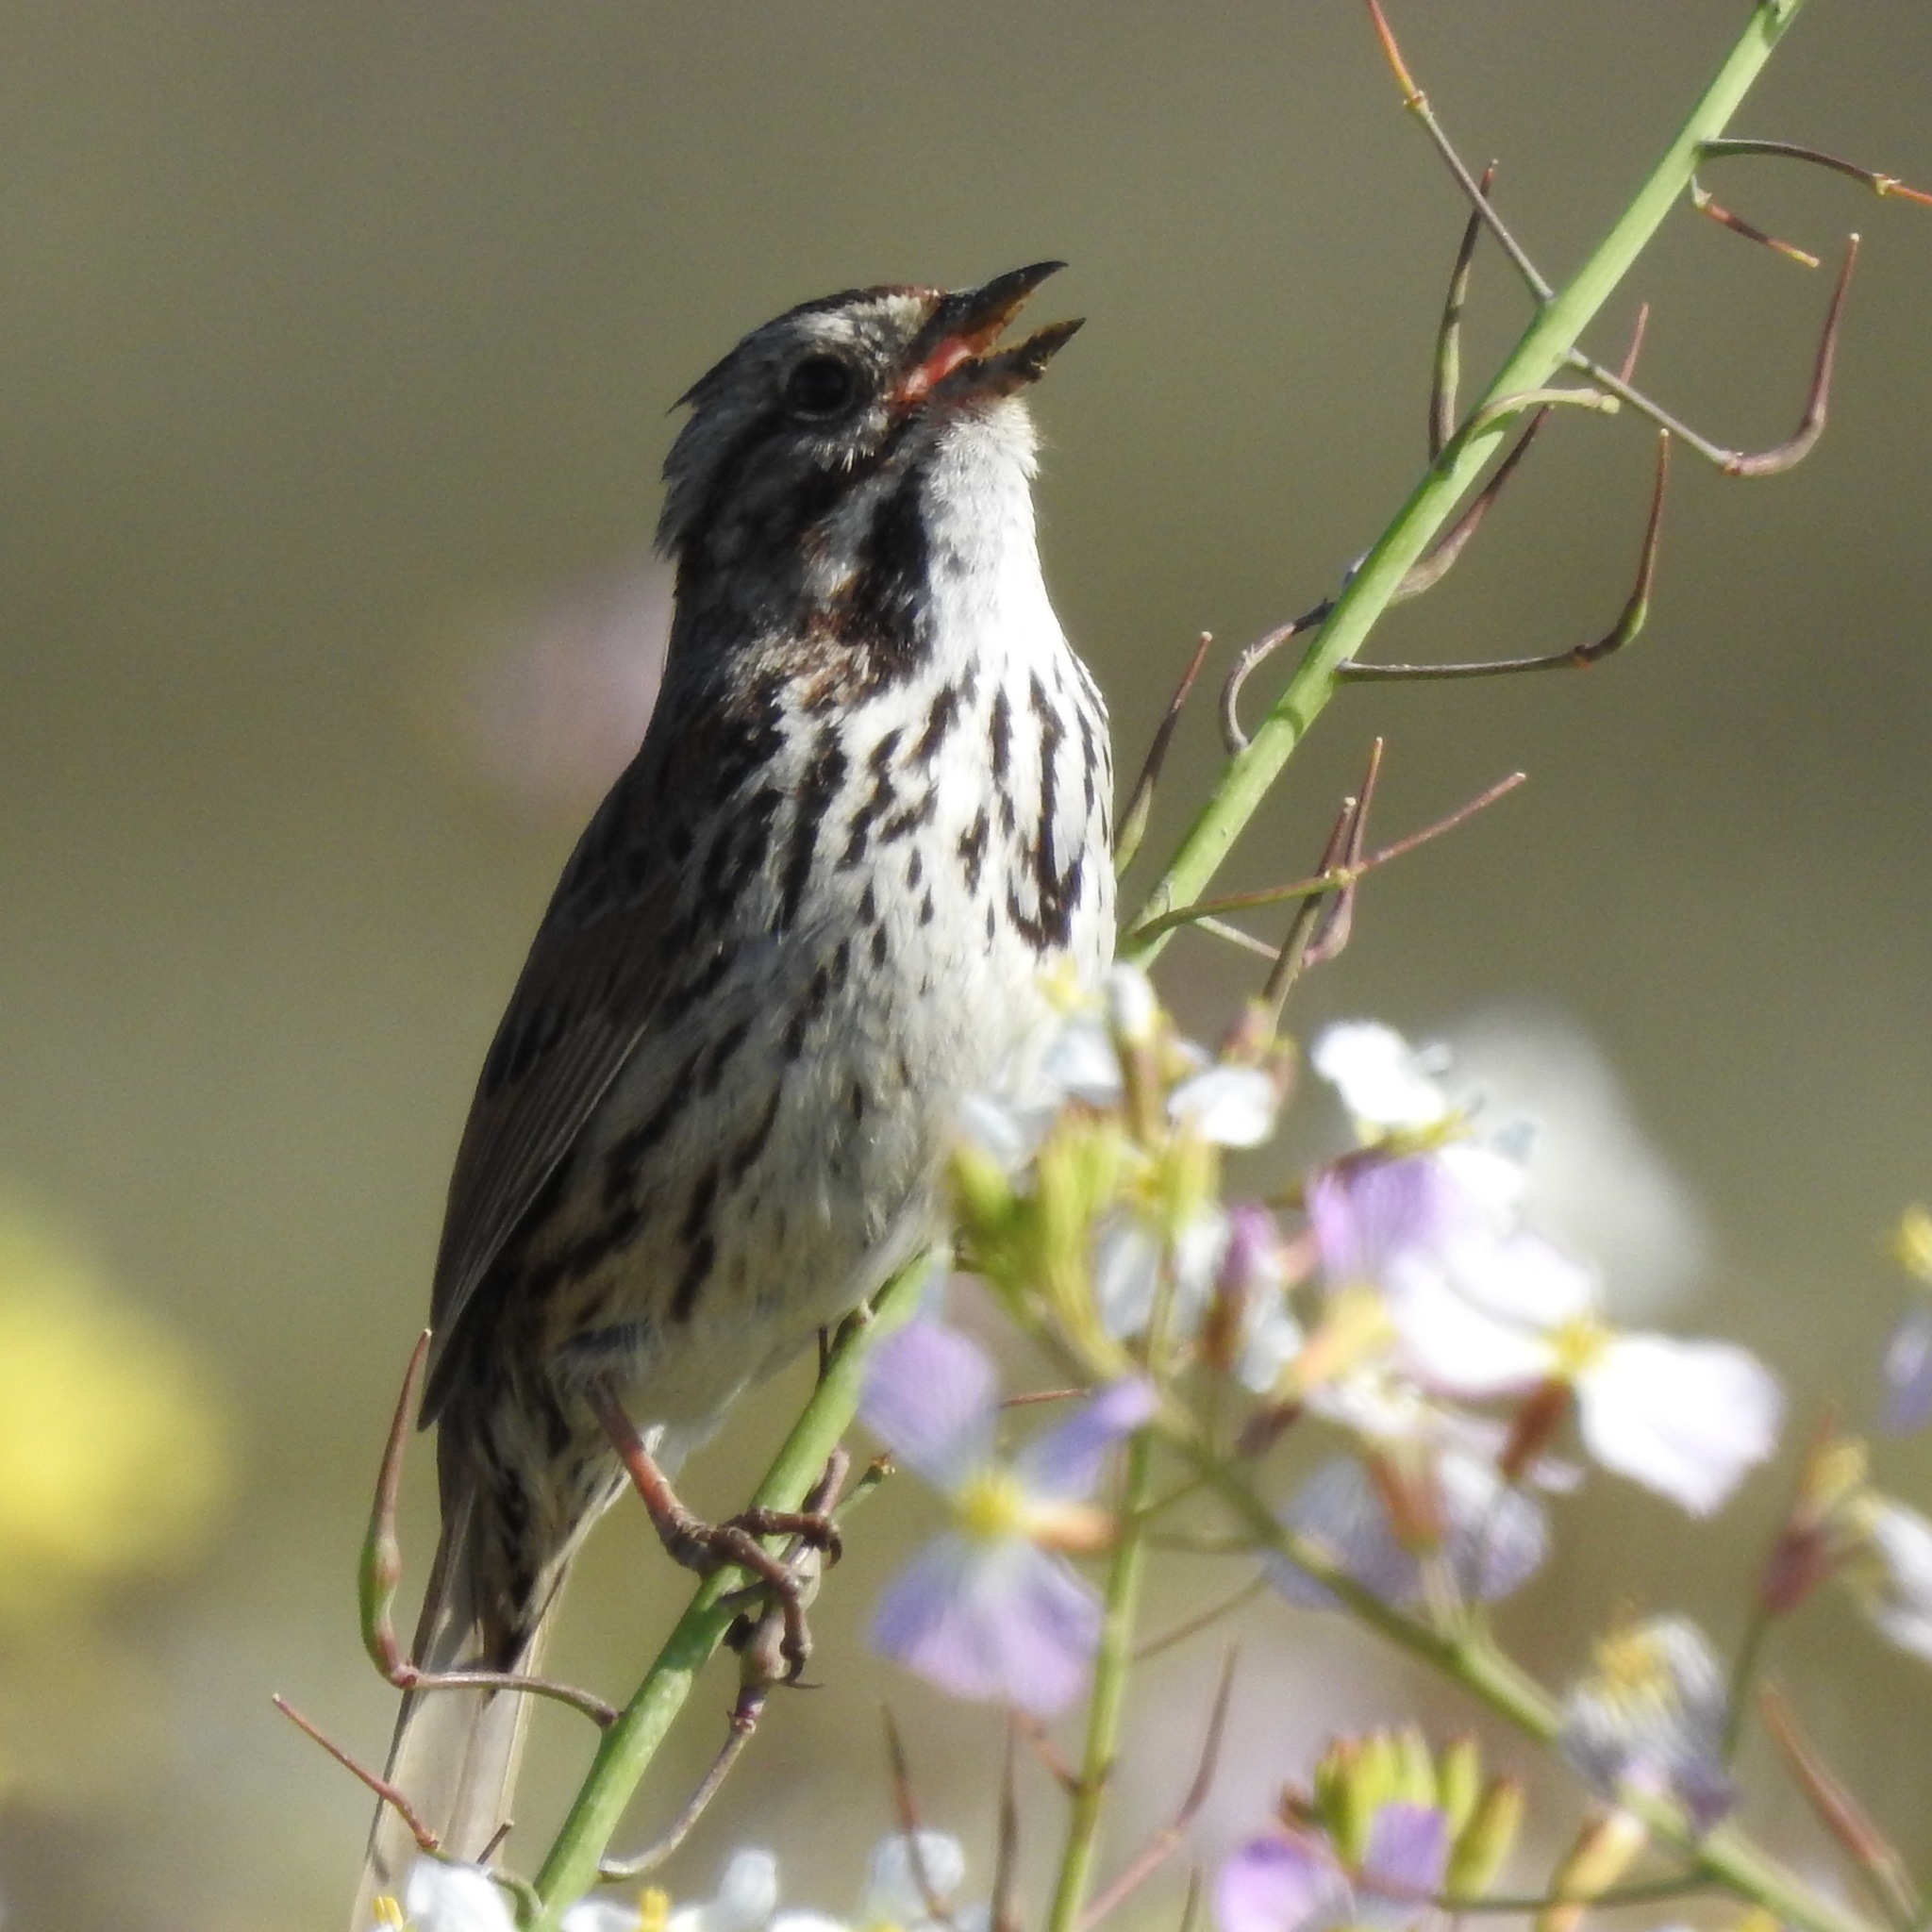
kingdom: Animalia
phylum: Chordata
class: Aves
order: Passeriformes
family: Passerellidae
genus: Melospiza
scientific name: Melospiza melodia
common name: Song sparrow
